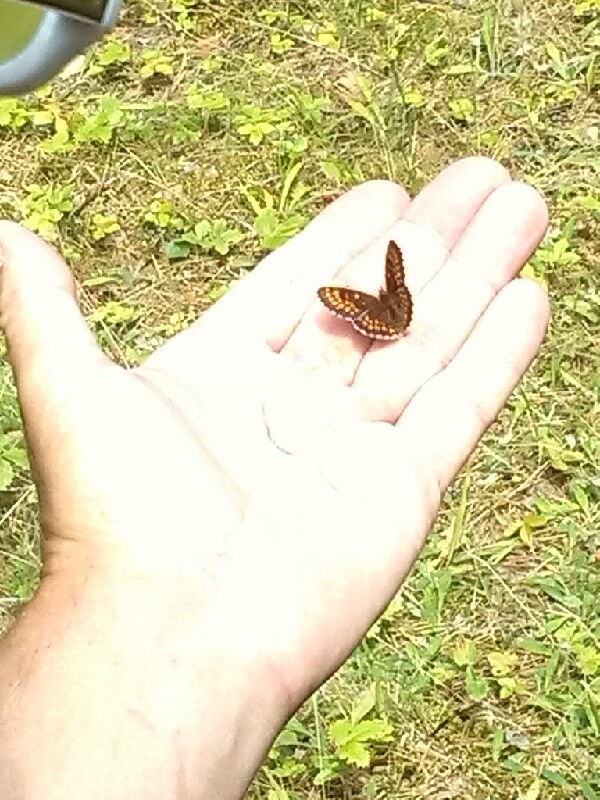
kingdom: Animalia
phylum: Arthropoda
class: Insecta
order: Lepidoptera
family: Nymphalidae
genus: Melitaea
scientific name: Melitaea athalia
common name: Heath fritillary
